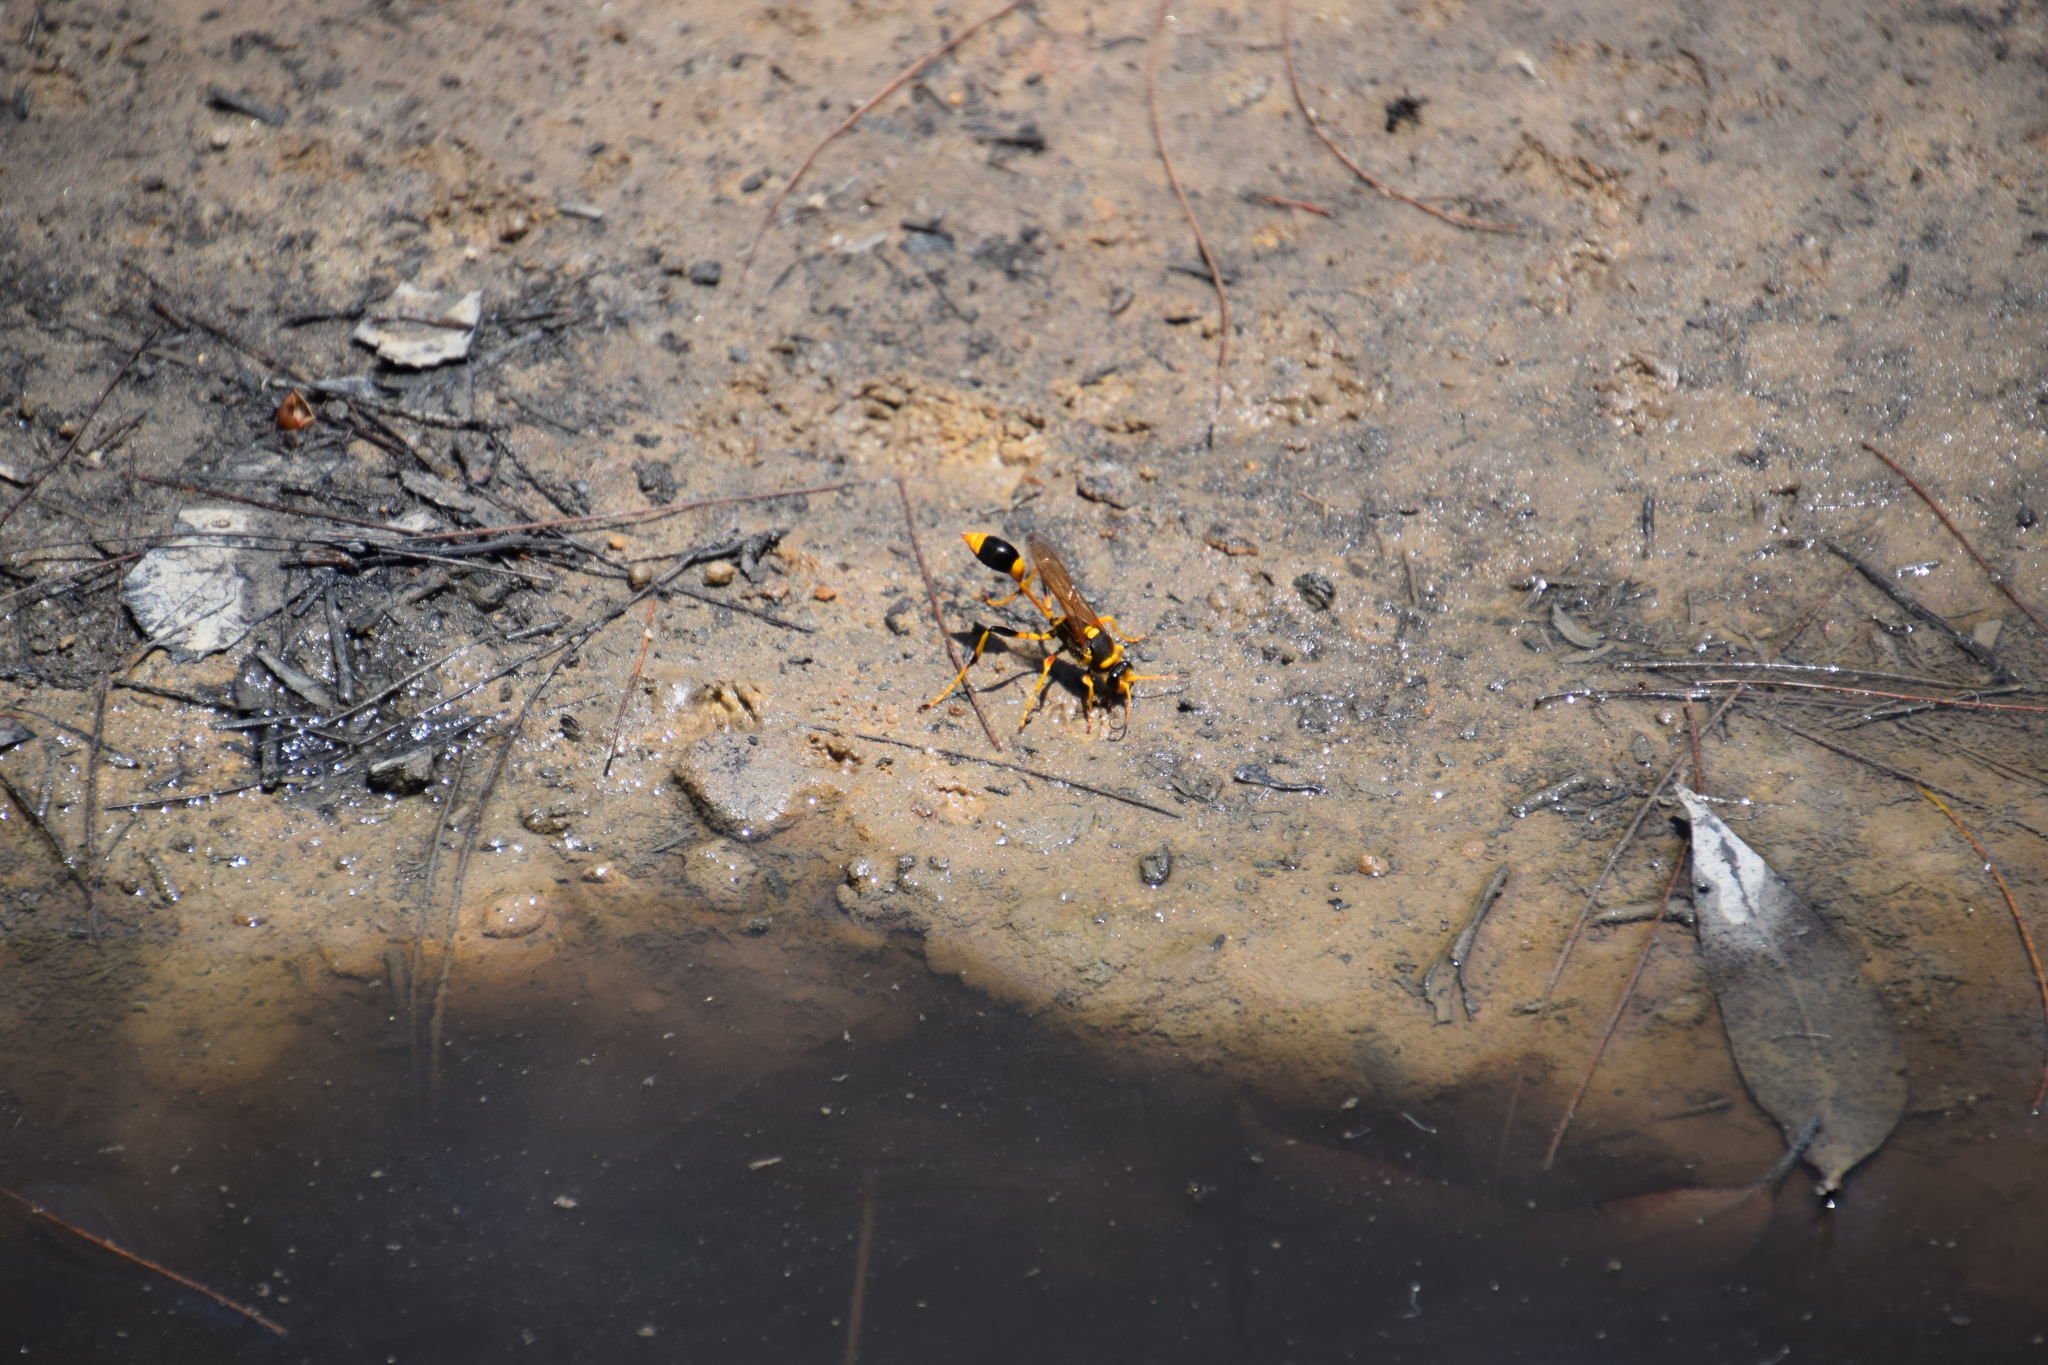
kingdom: Animalia
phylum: Arthropoda
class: Insecta
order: Hymenoptera
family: Sphecidae
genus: Sceliphron
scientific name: Sceliphron laetum
